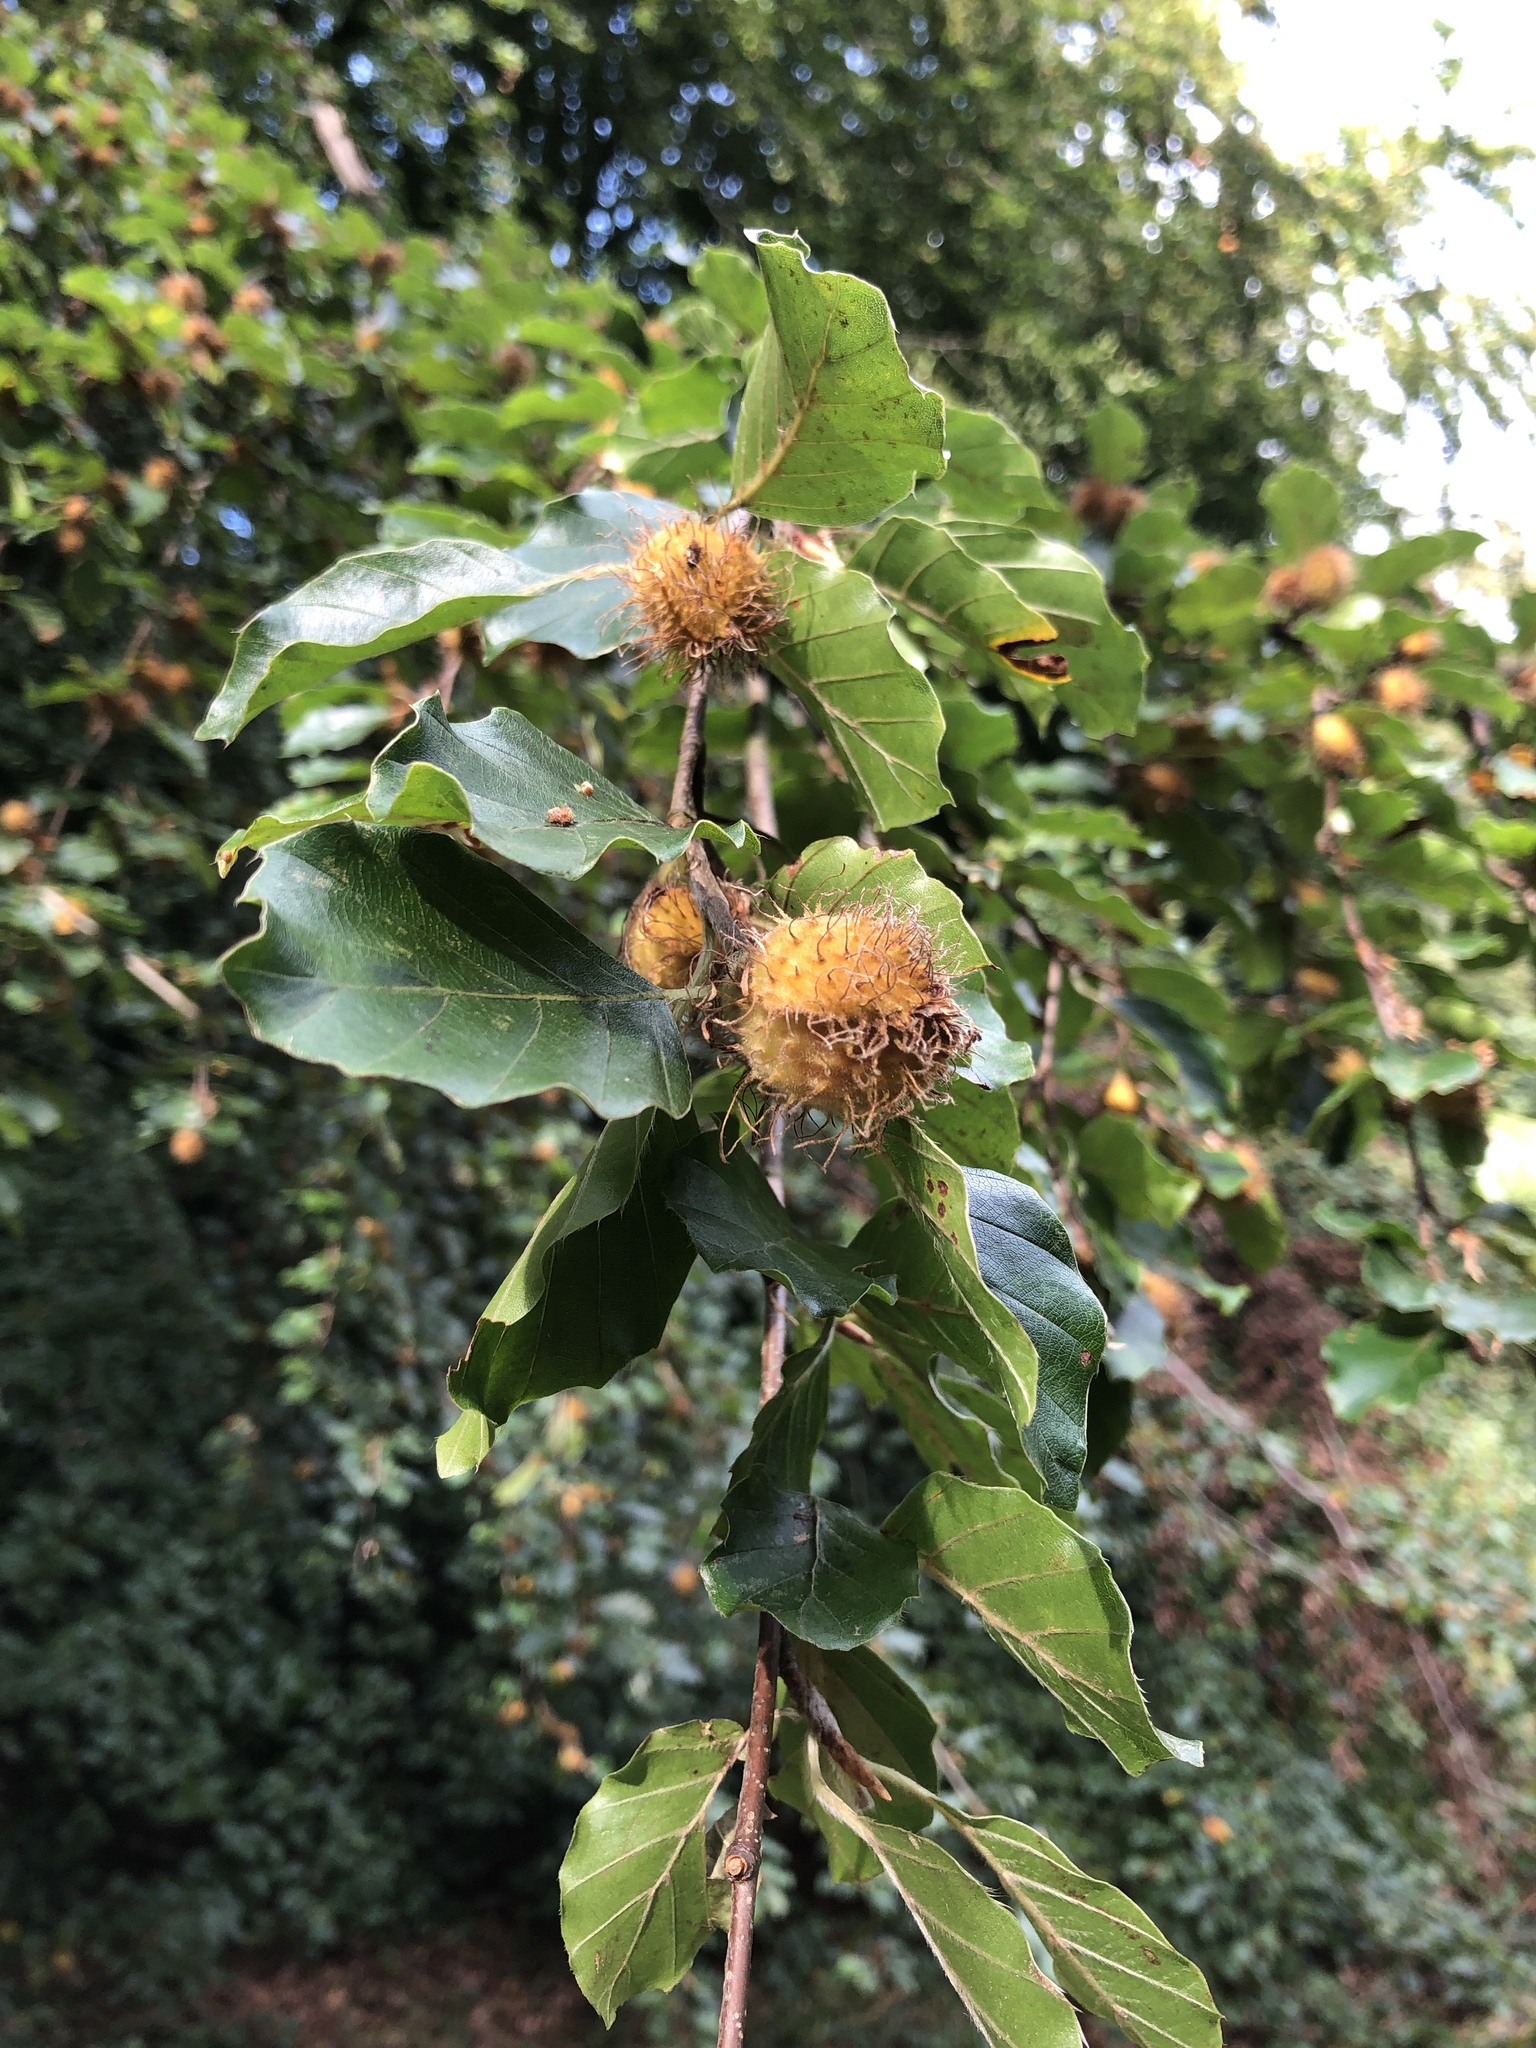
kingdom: Plantae
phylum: Tracheophyta
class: Magnoliopsida
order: Fagales
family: Fagaceae
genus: Fagus
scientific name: Fagus sylvatica
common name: Beech
